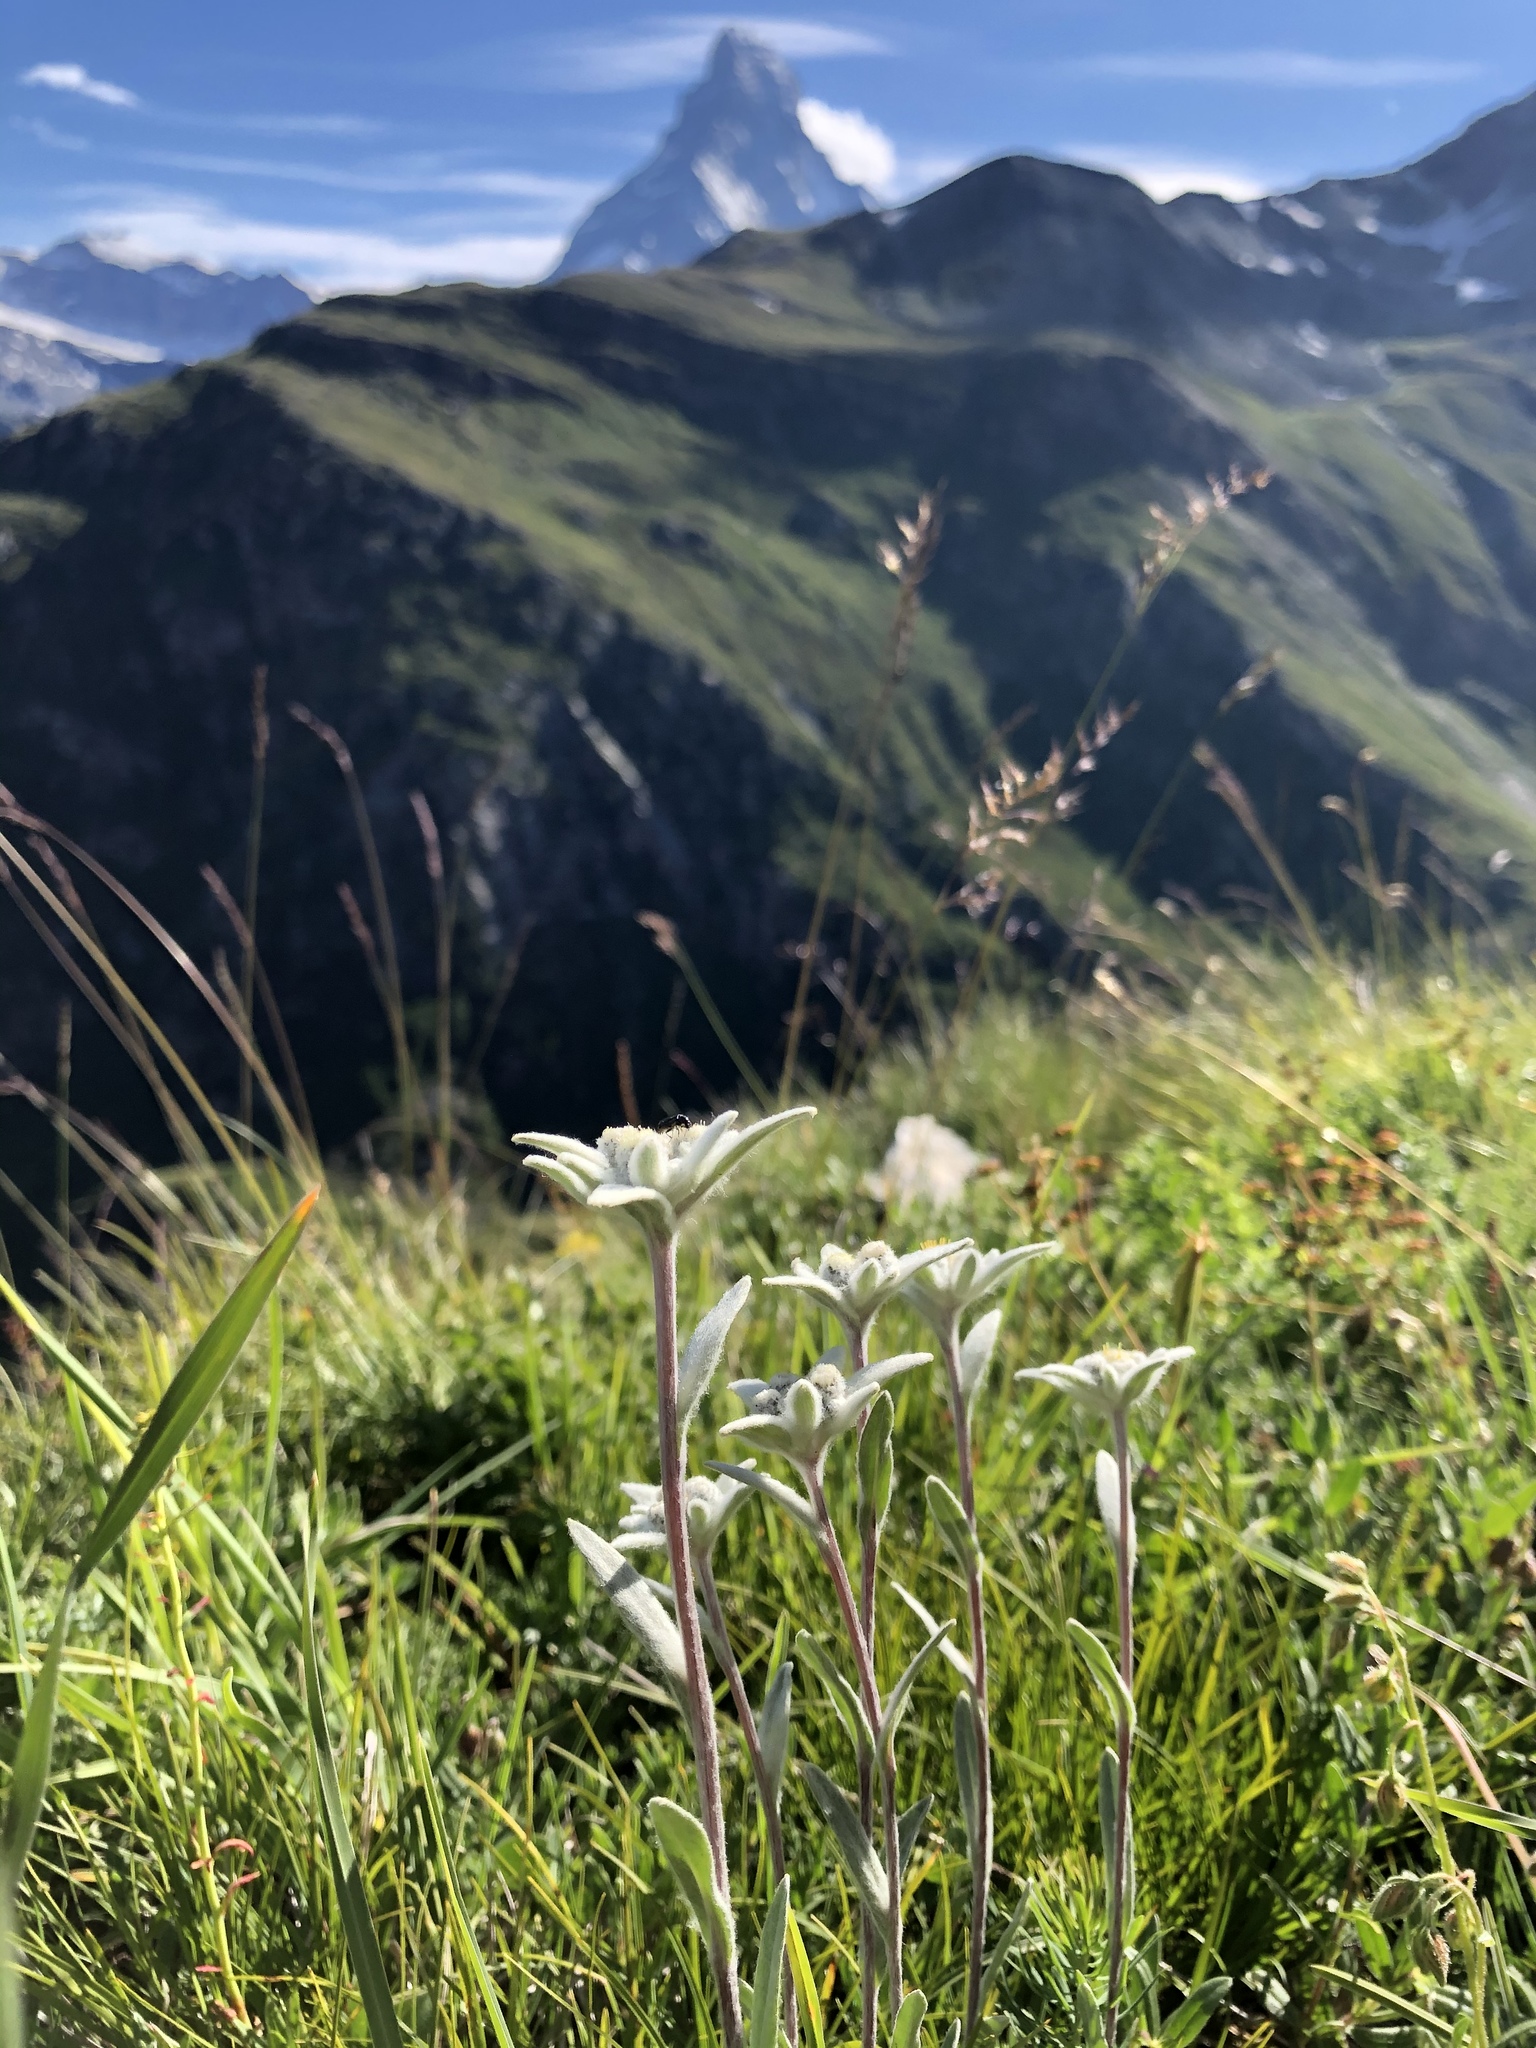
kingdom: Plantae
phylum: Tracheophyta
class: Magnoliopsida
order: Asterales
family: Asteraceae
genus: Leontopodium
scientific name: Leontopodium nivale
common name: Edelweiss
